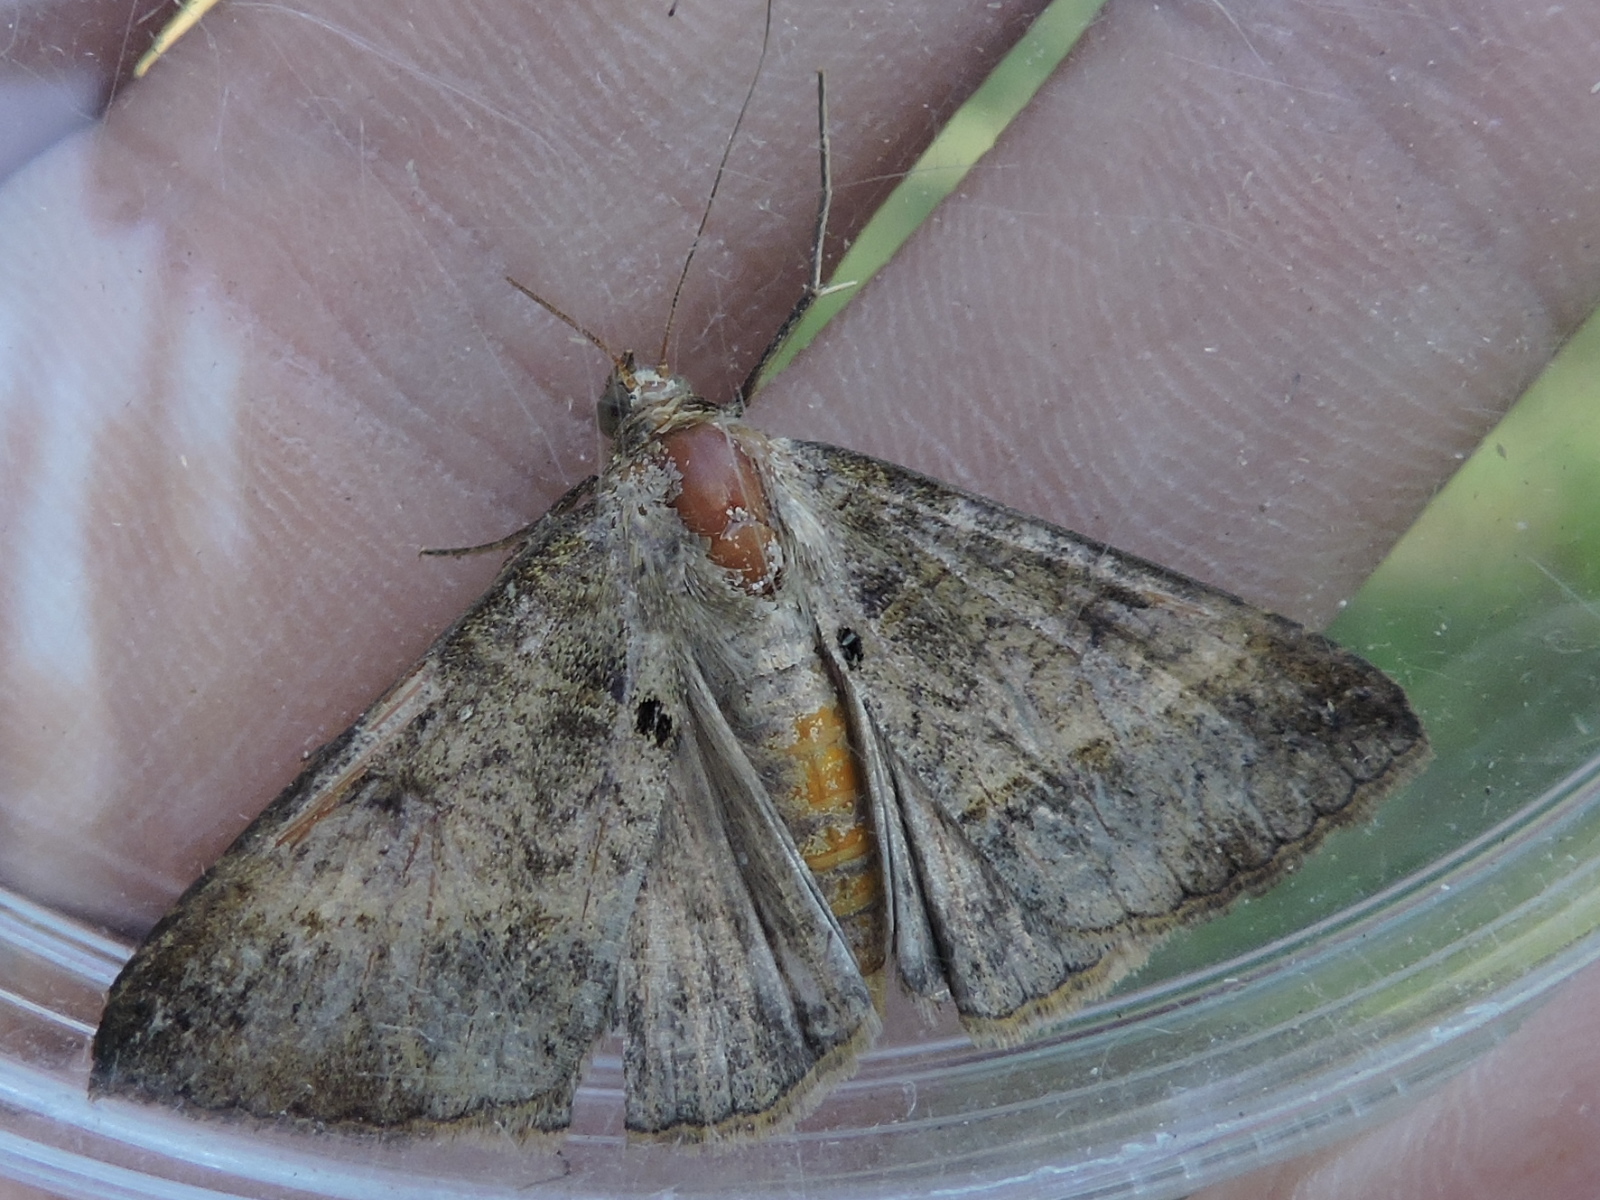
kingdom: Animalia
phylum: Arthropoda
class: Insecta
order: Lepidoptera
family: Erebidae
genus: Mocis
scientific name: Mocis latipes
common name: Striped grass looper
